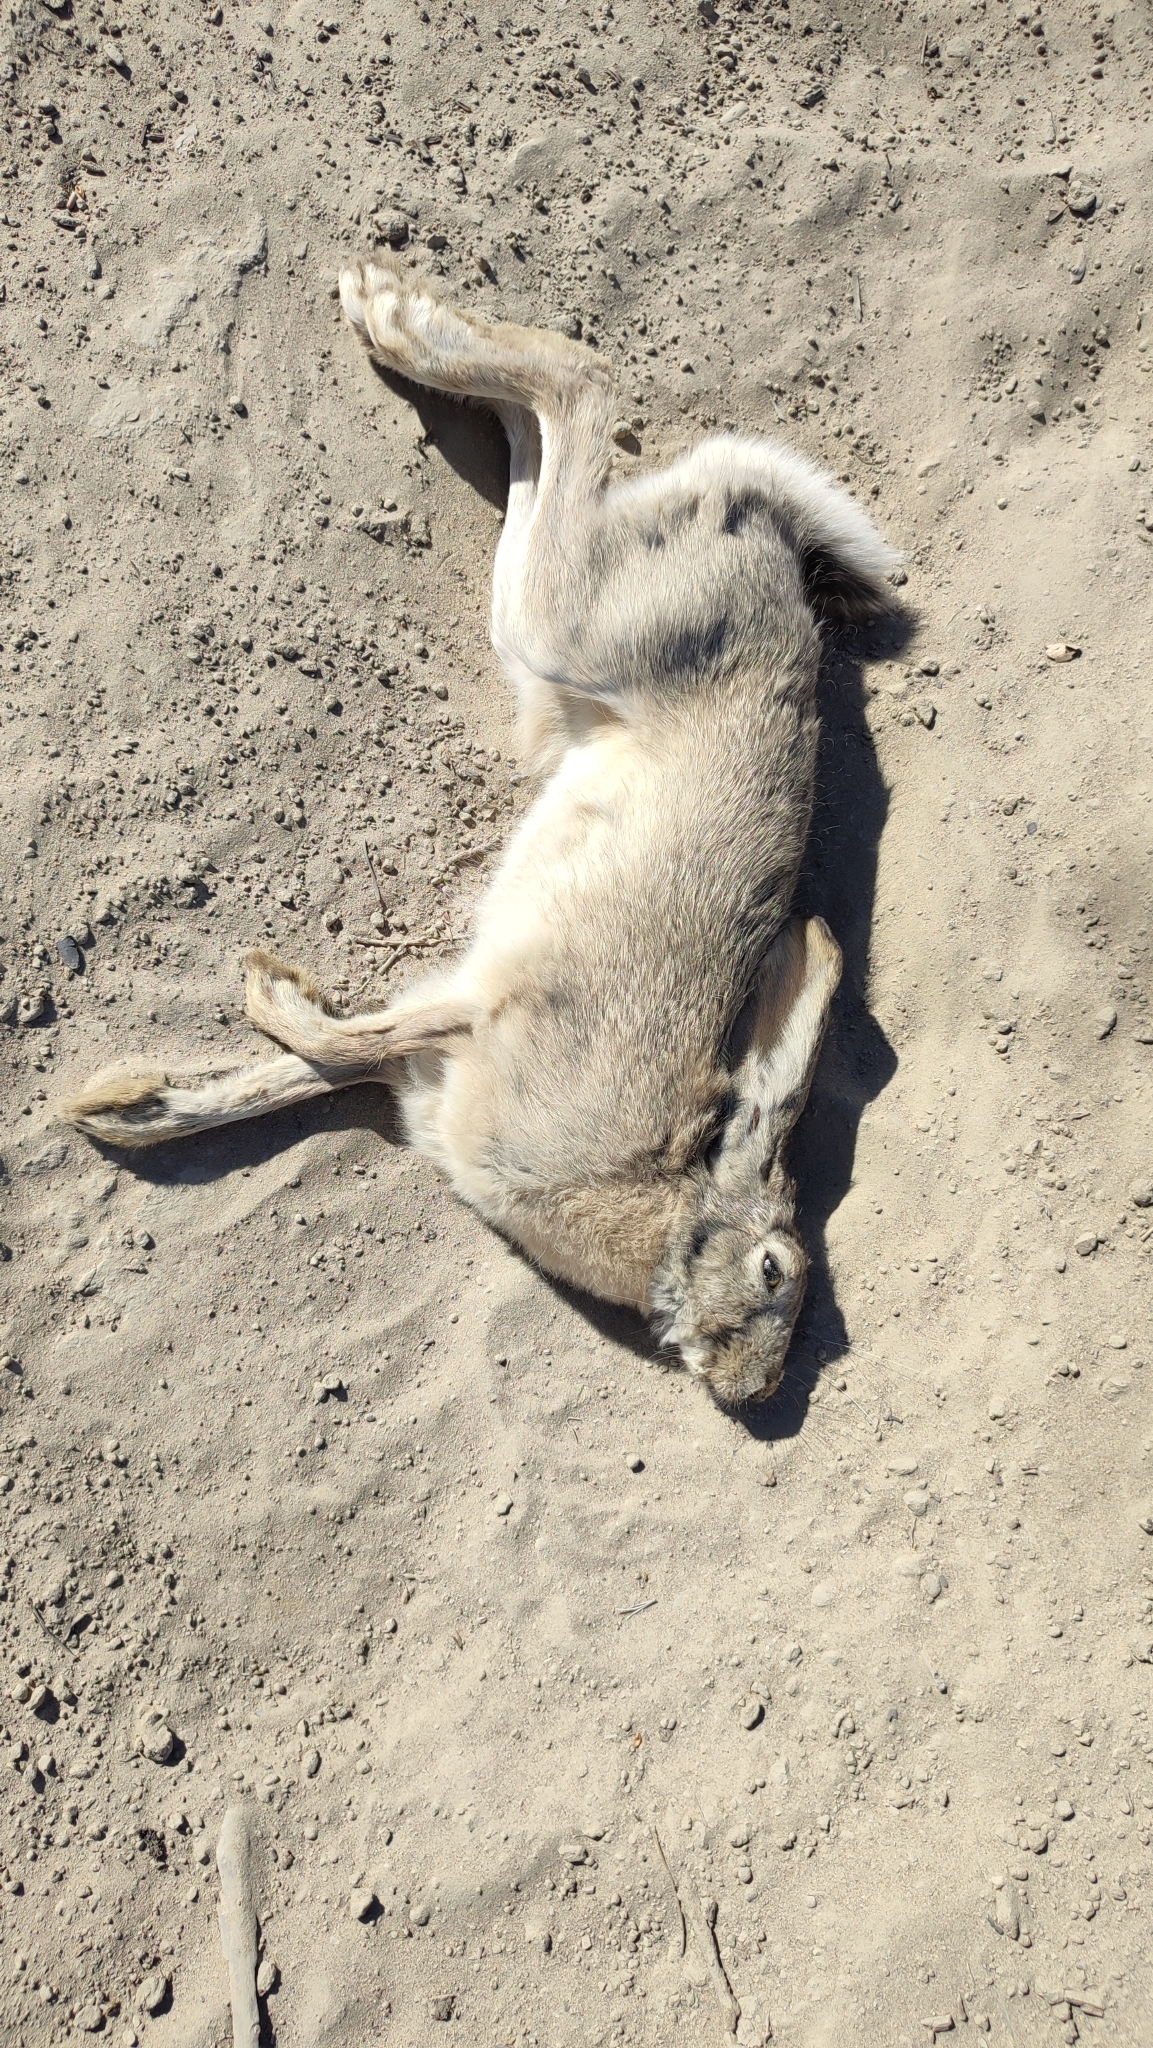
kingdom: Animalia
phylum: Chordata
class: Mammalia
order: Lagomorpha
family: Leporidae
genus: Lepus
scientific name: Lepus tolai
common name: Tolai hare
